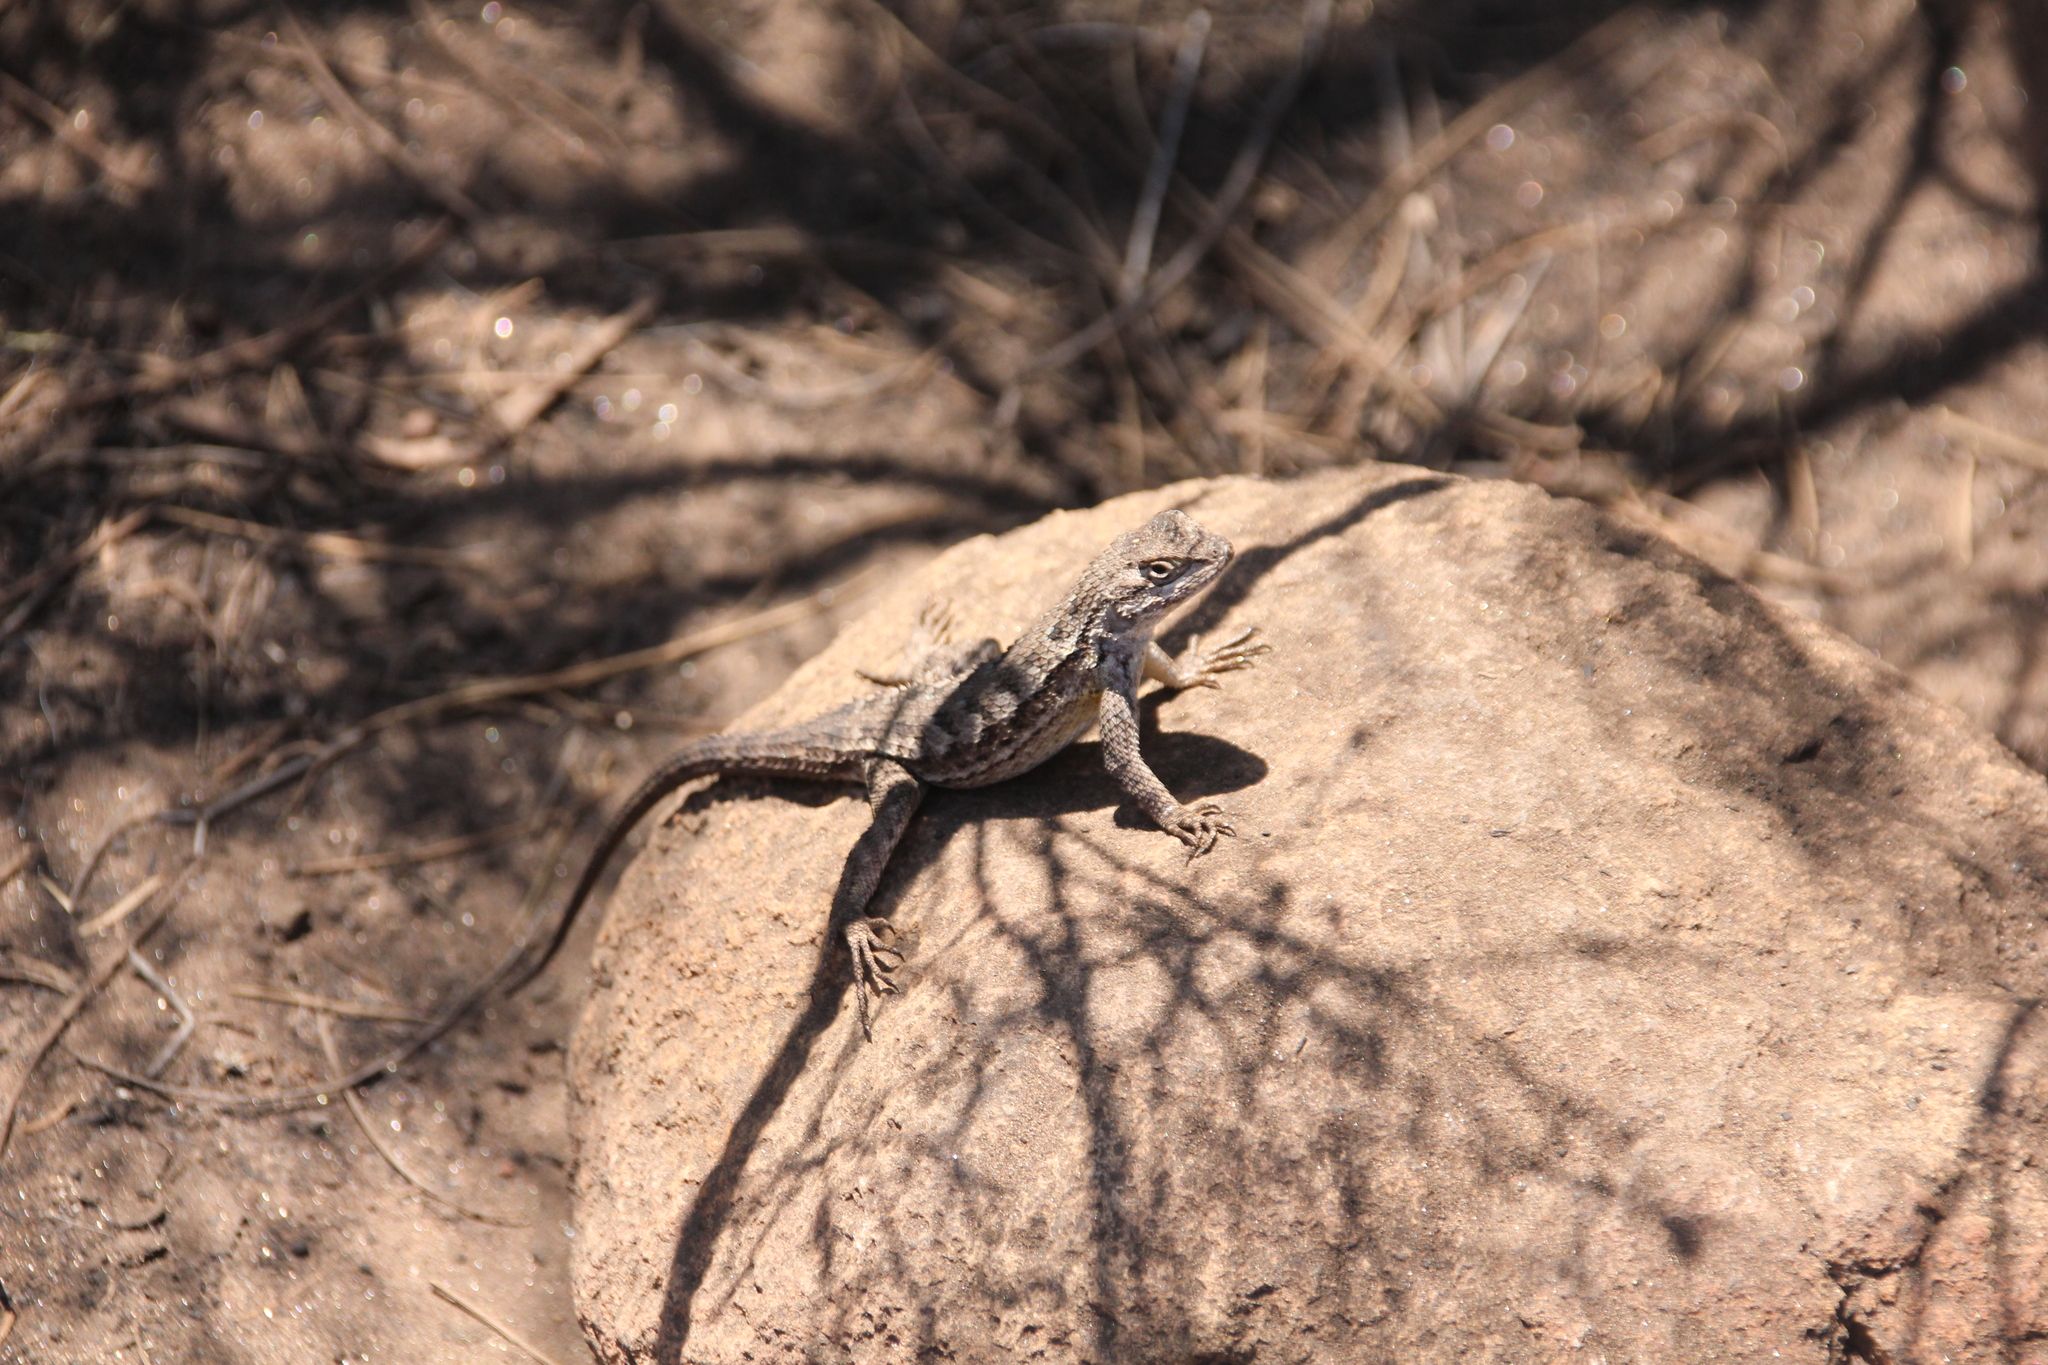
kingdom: Animalia
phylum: Chordata
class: Squamata
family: Phrynosomatidae
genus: Sceloporus
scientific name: Sceloporus occidentalis
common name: Western fence lizard
